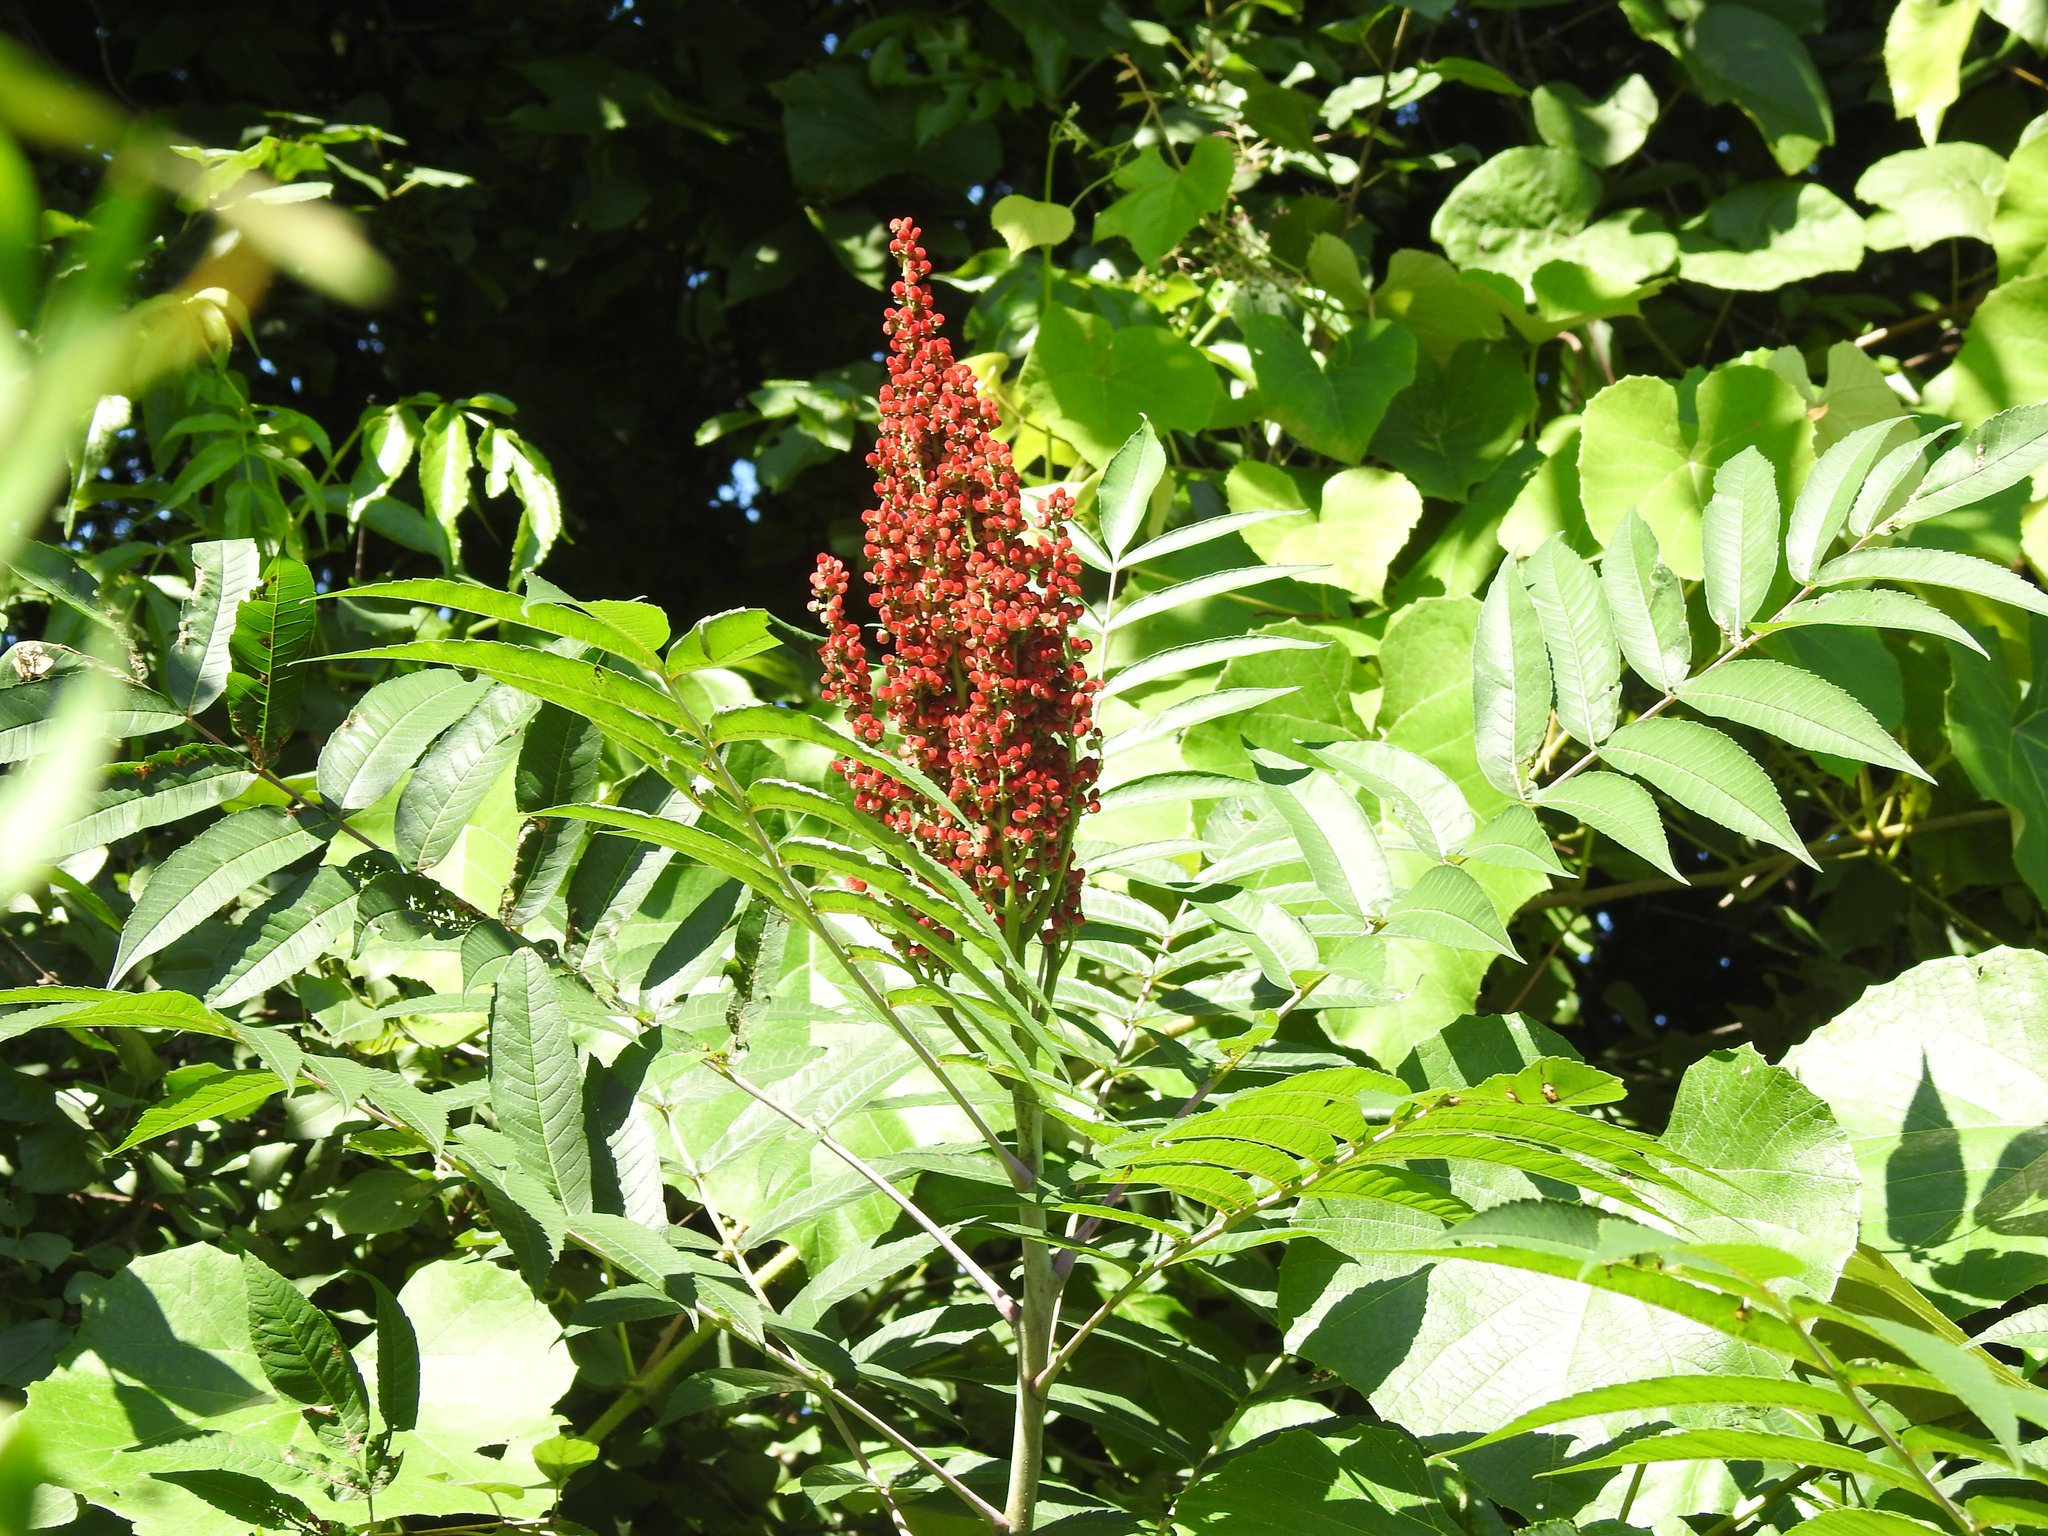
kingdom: Plantae
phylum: Tracheophyta
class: Magnoliopsida
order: Sapindales
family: Anacardiaceae
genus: Rhus
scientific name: Rhus glabra
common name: Scarlet sumac
